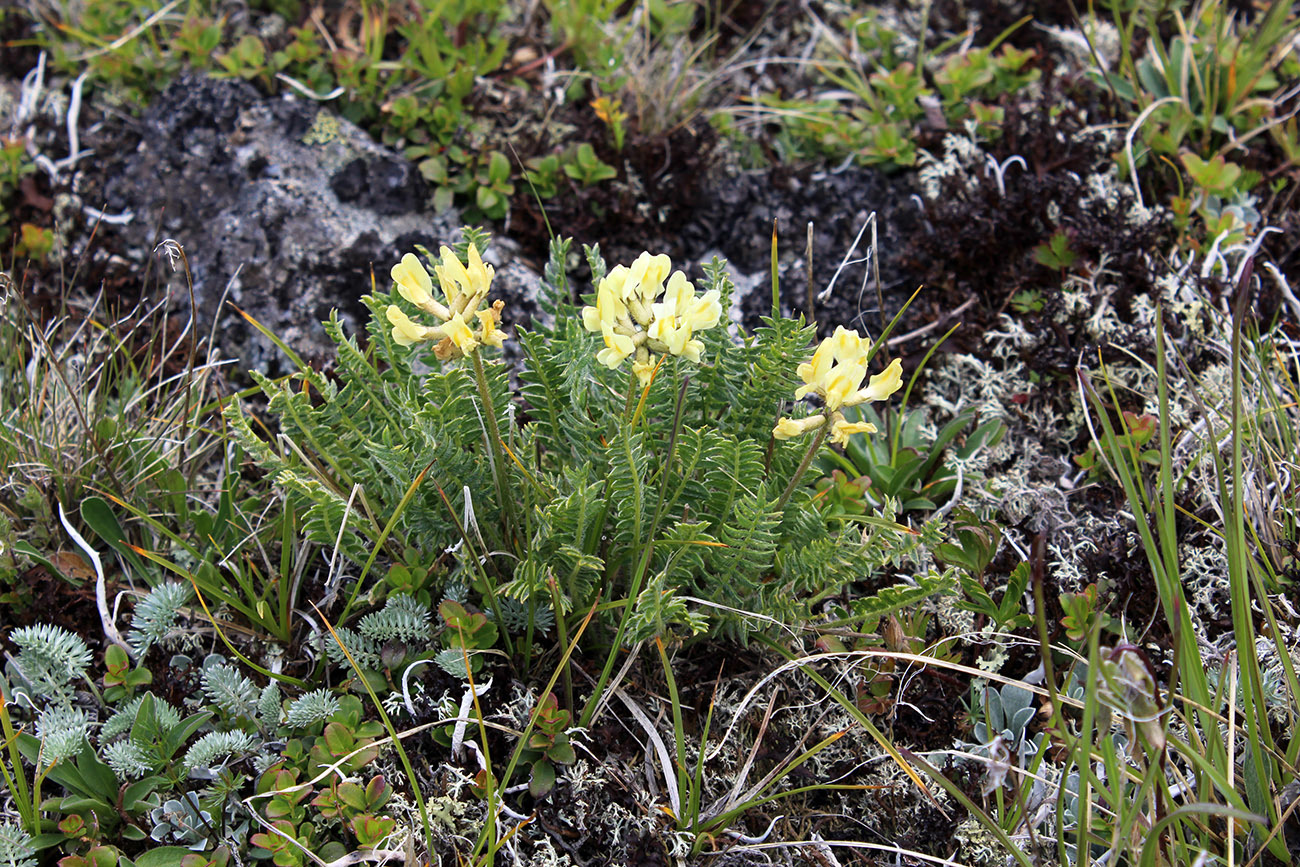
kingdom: Plantae
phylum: Tracheophyta
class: Magnoliopsida
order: Fabales
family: Fabaceae
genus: Oxytropis
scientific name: Oxytropis kubanensis
